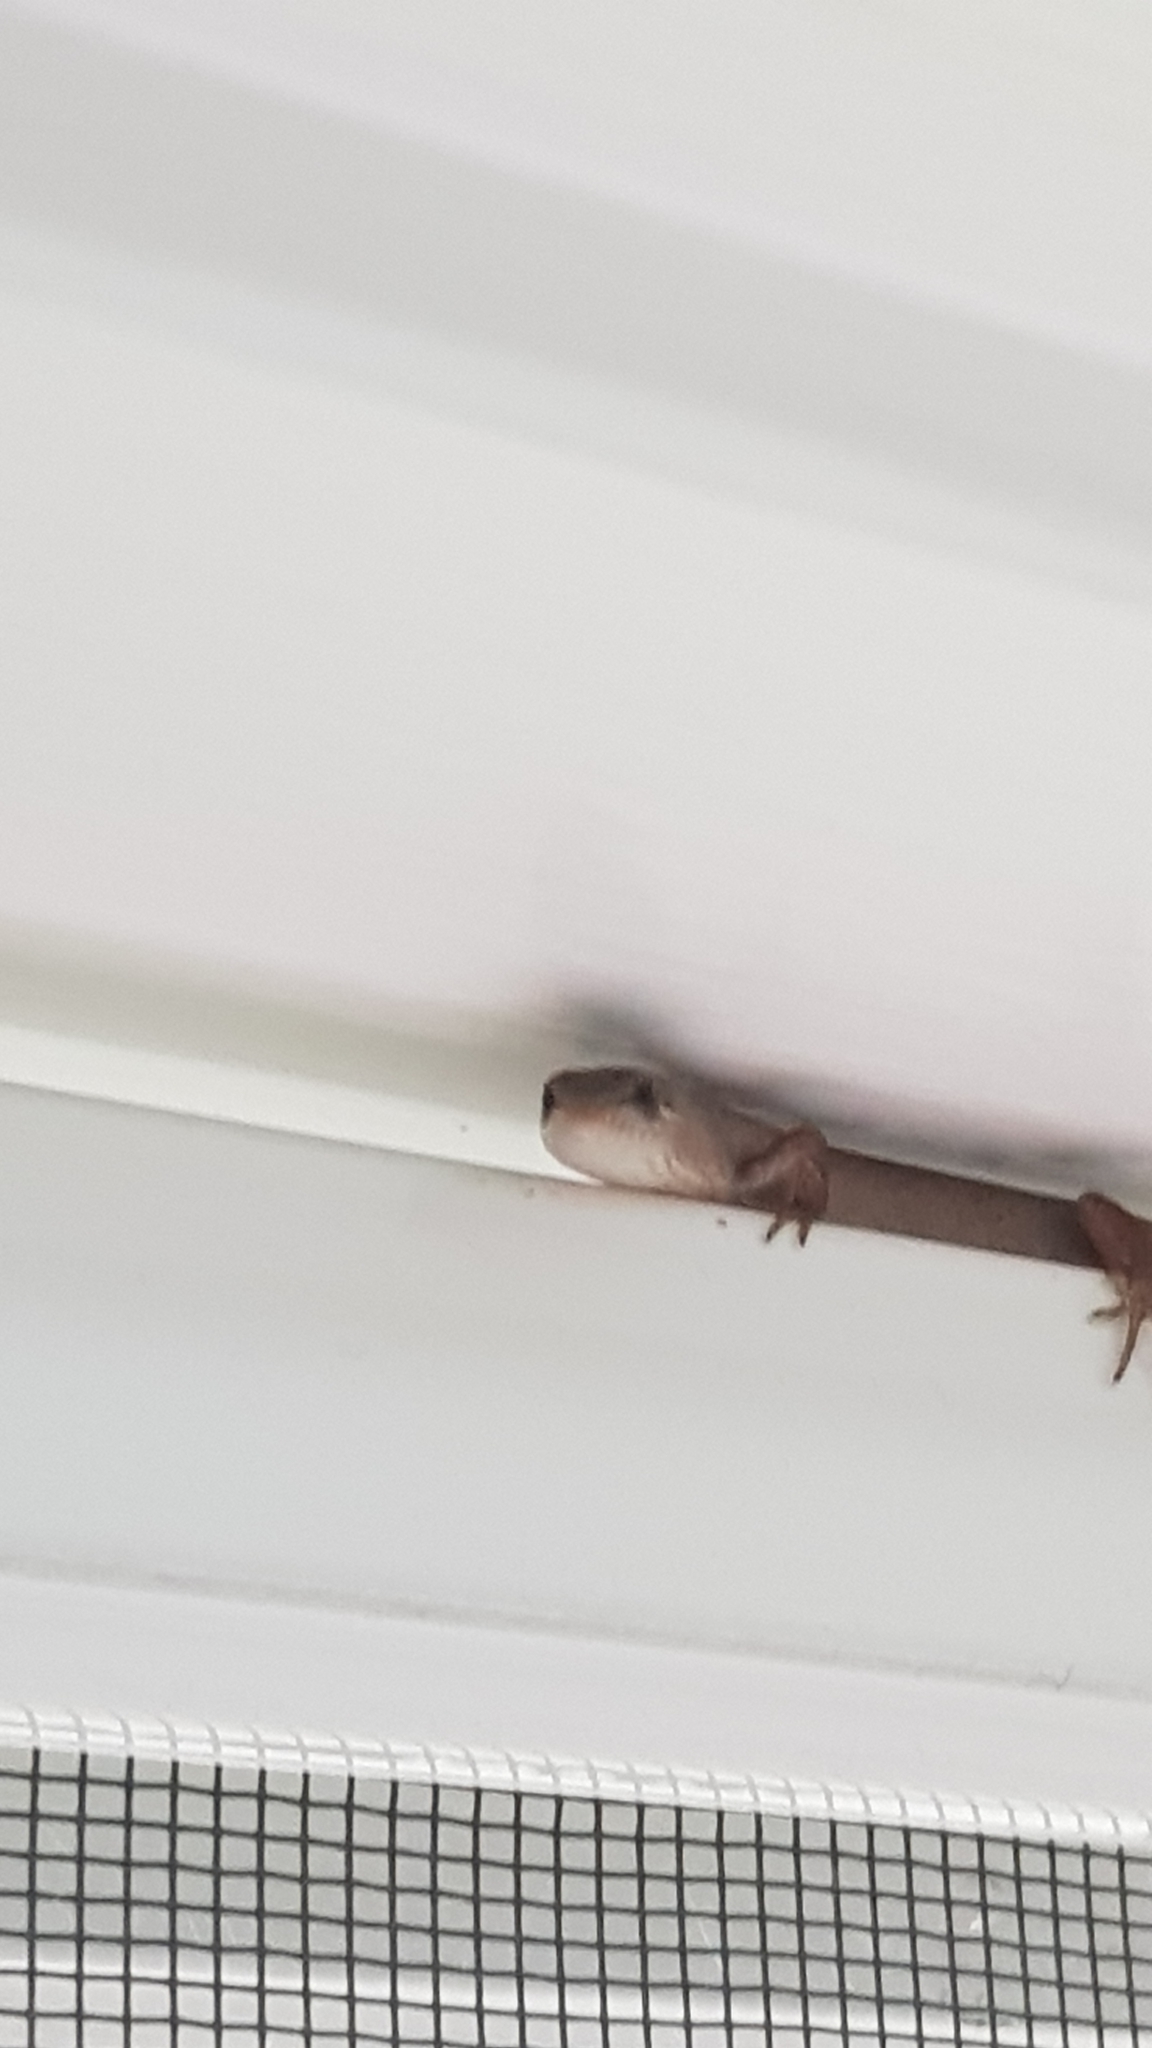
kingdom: Animalia
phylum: Chordata
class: Squamata
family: Scincidae
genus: Saproscincus
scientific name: Saproscincus mustelinus
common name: Southern weasel skink
